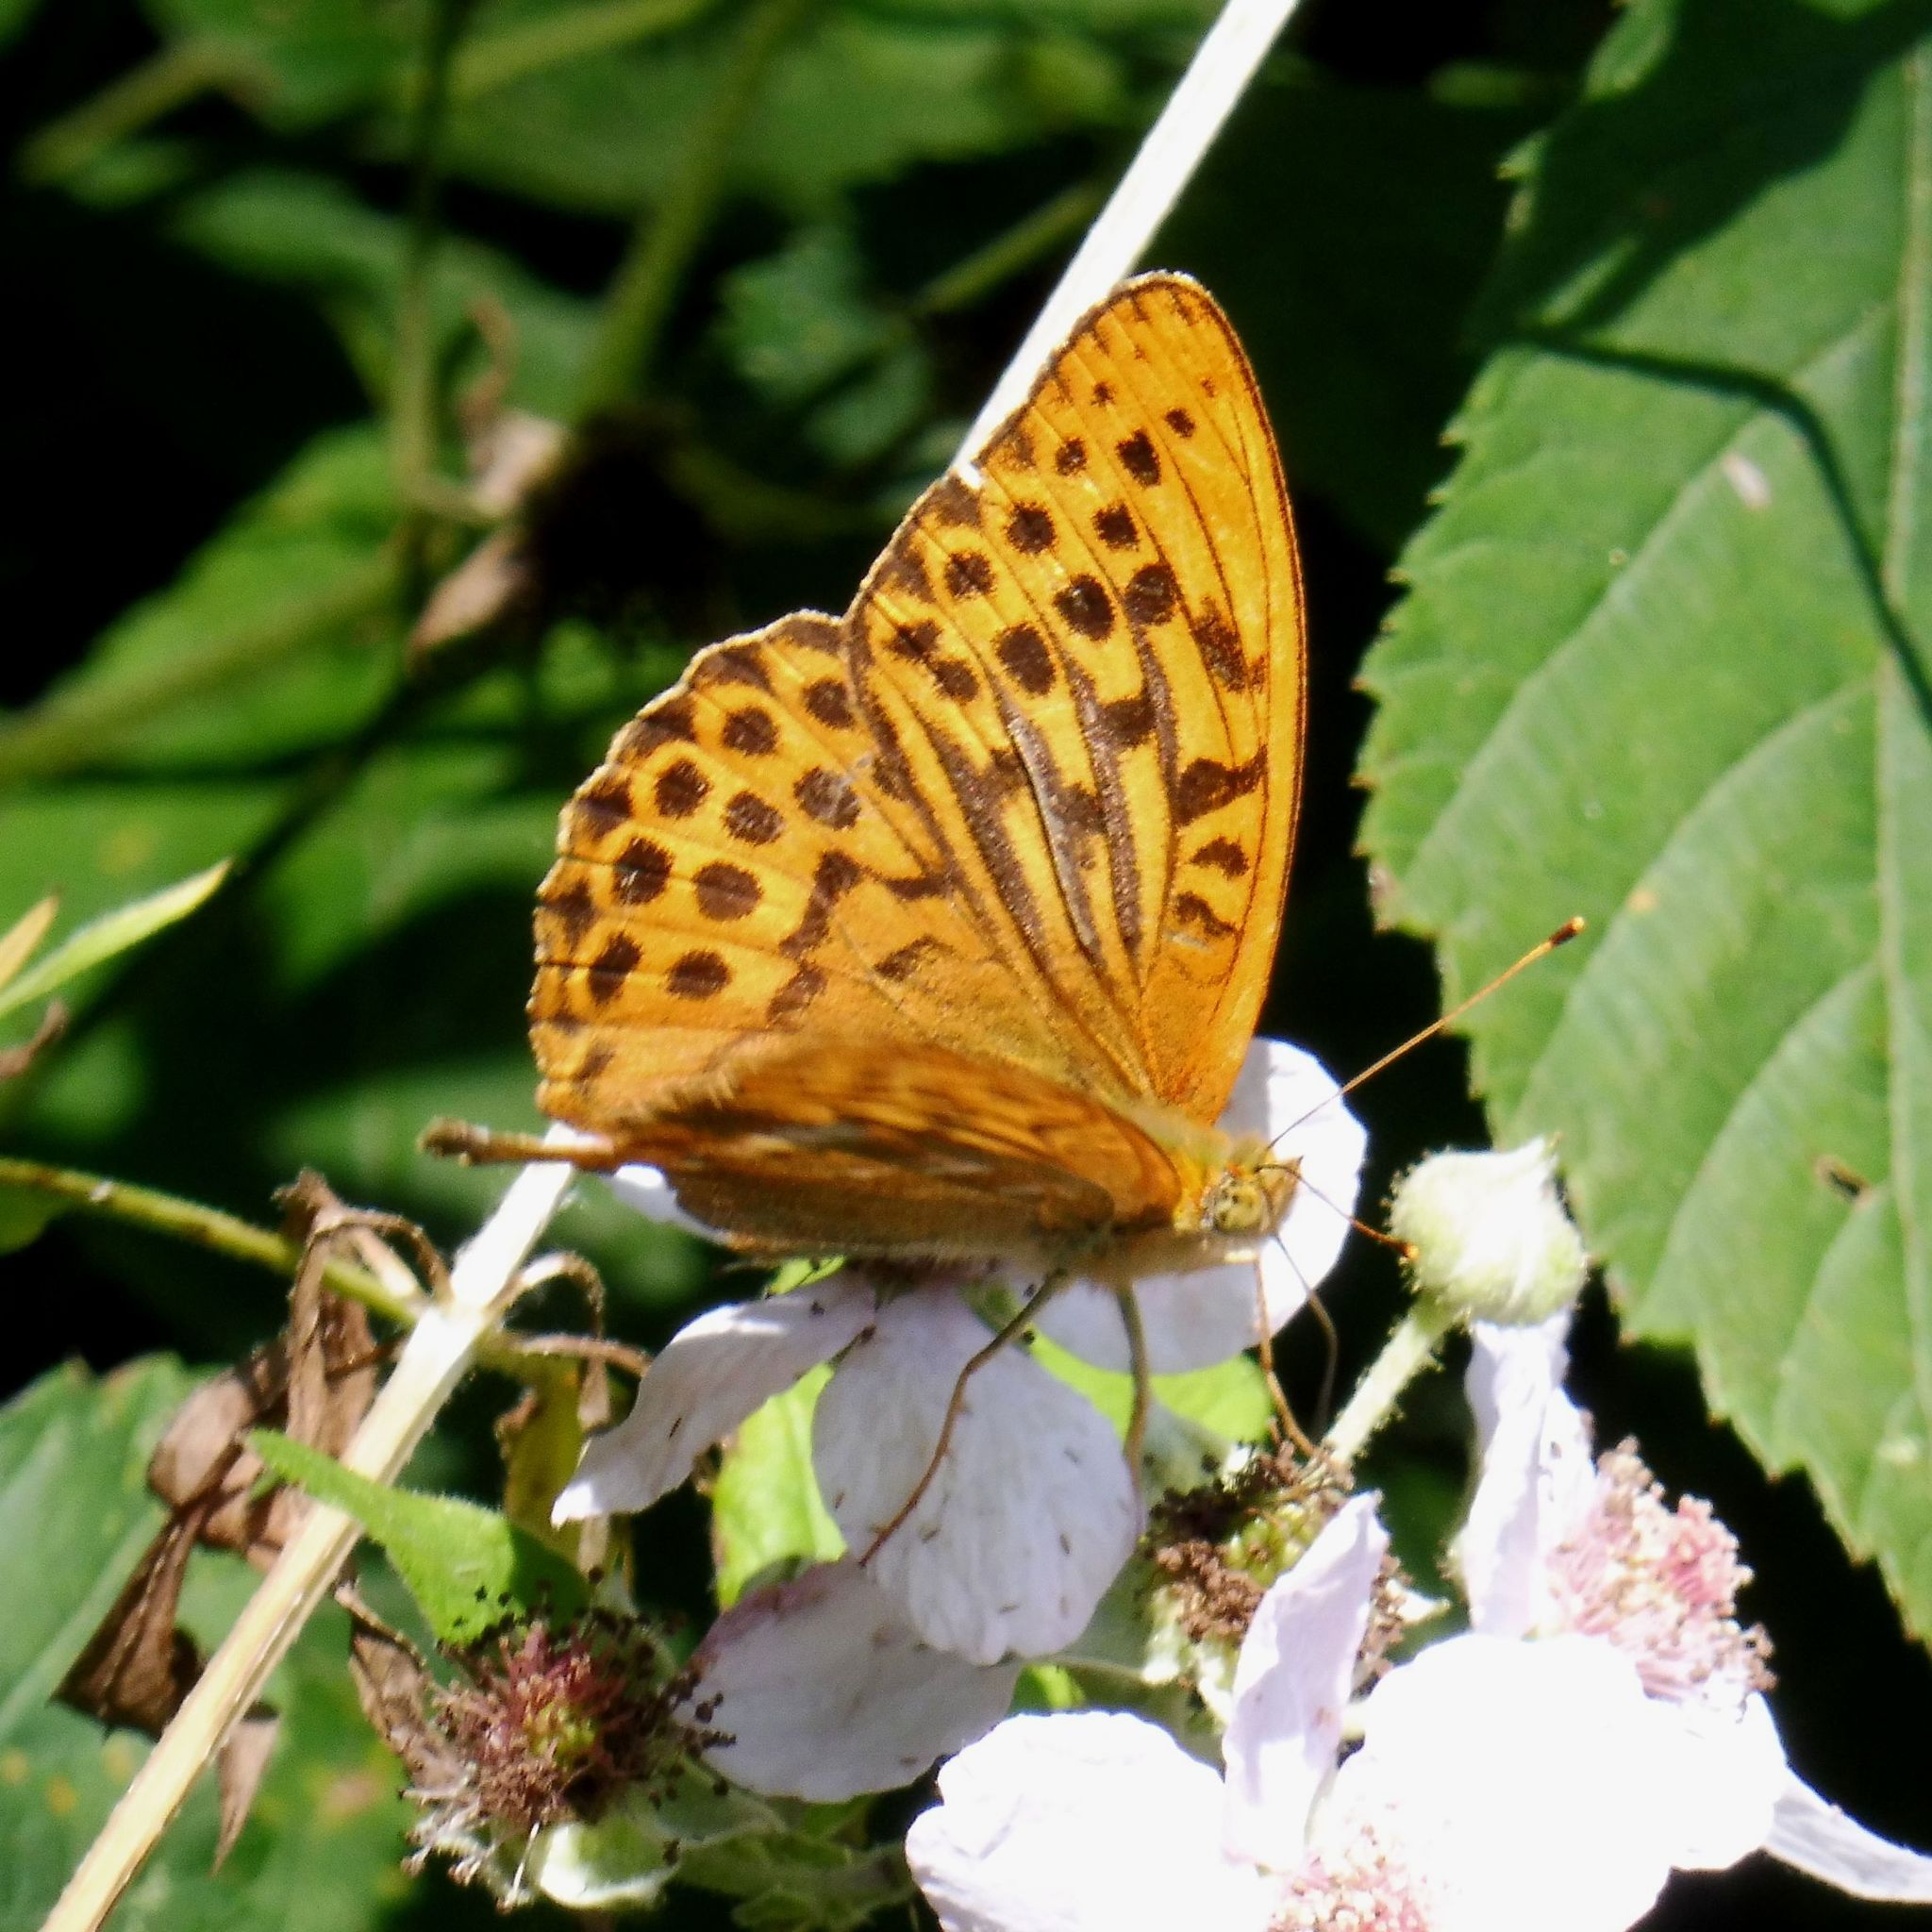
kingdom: Animalia
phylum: Arthropoda
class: Insecta
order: Lepidoptera
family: Nymphalidae
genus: Argynnis
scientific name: Argynnis paphia
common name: Silver-washed fritillary
